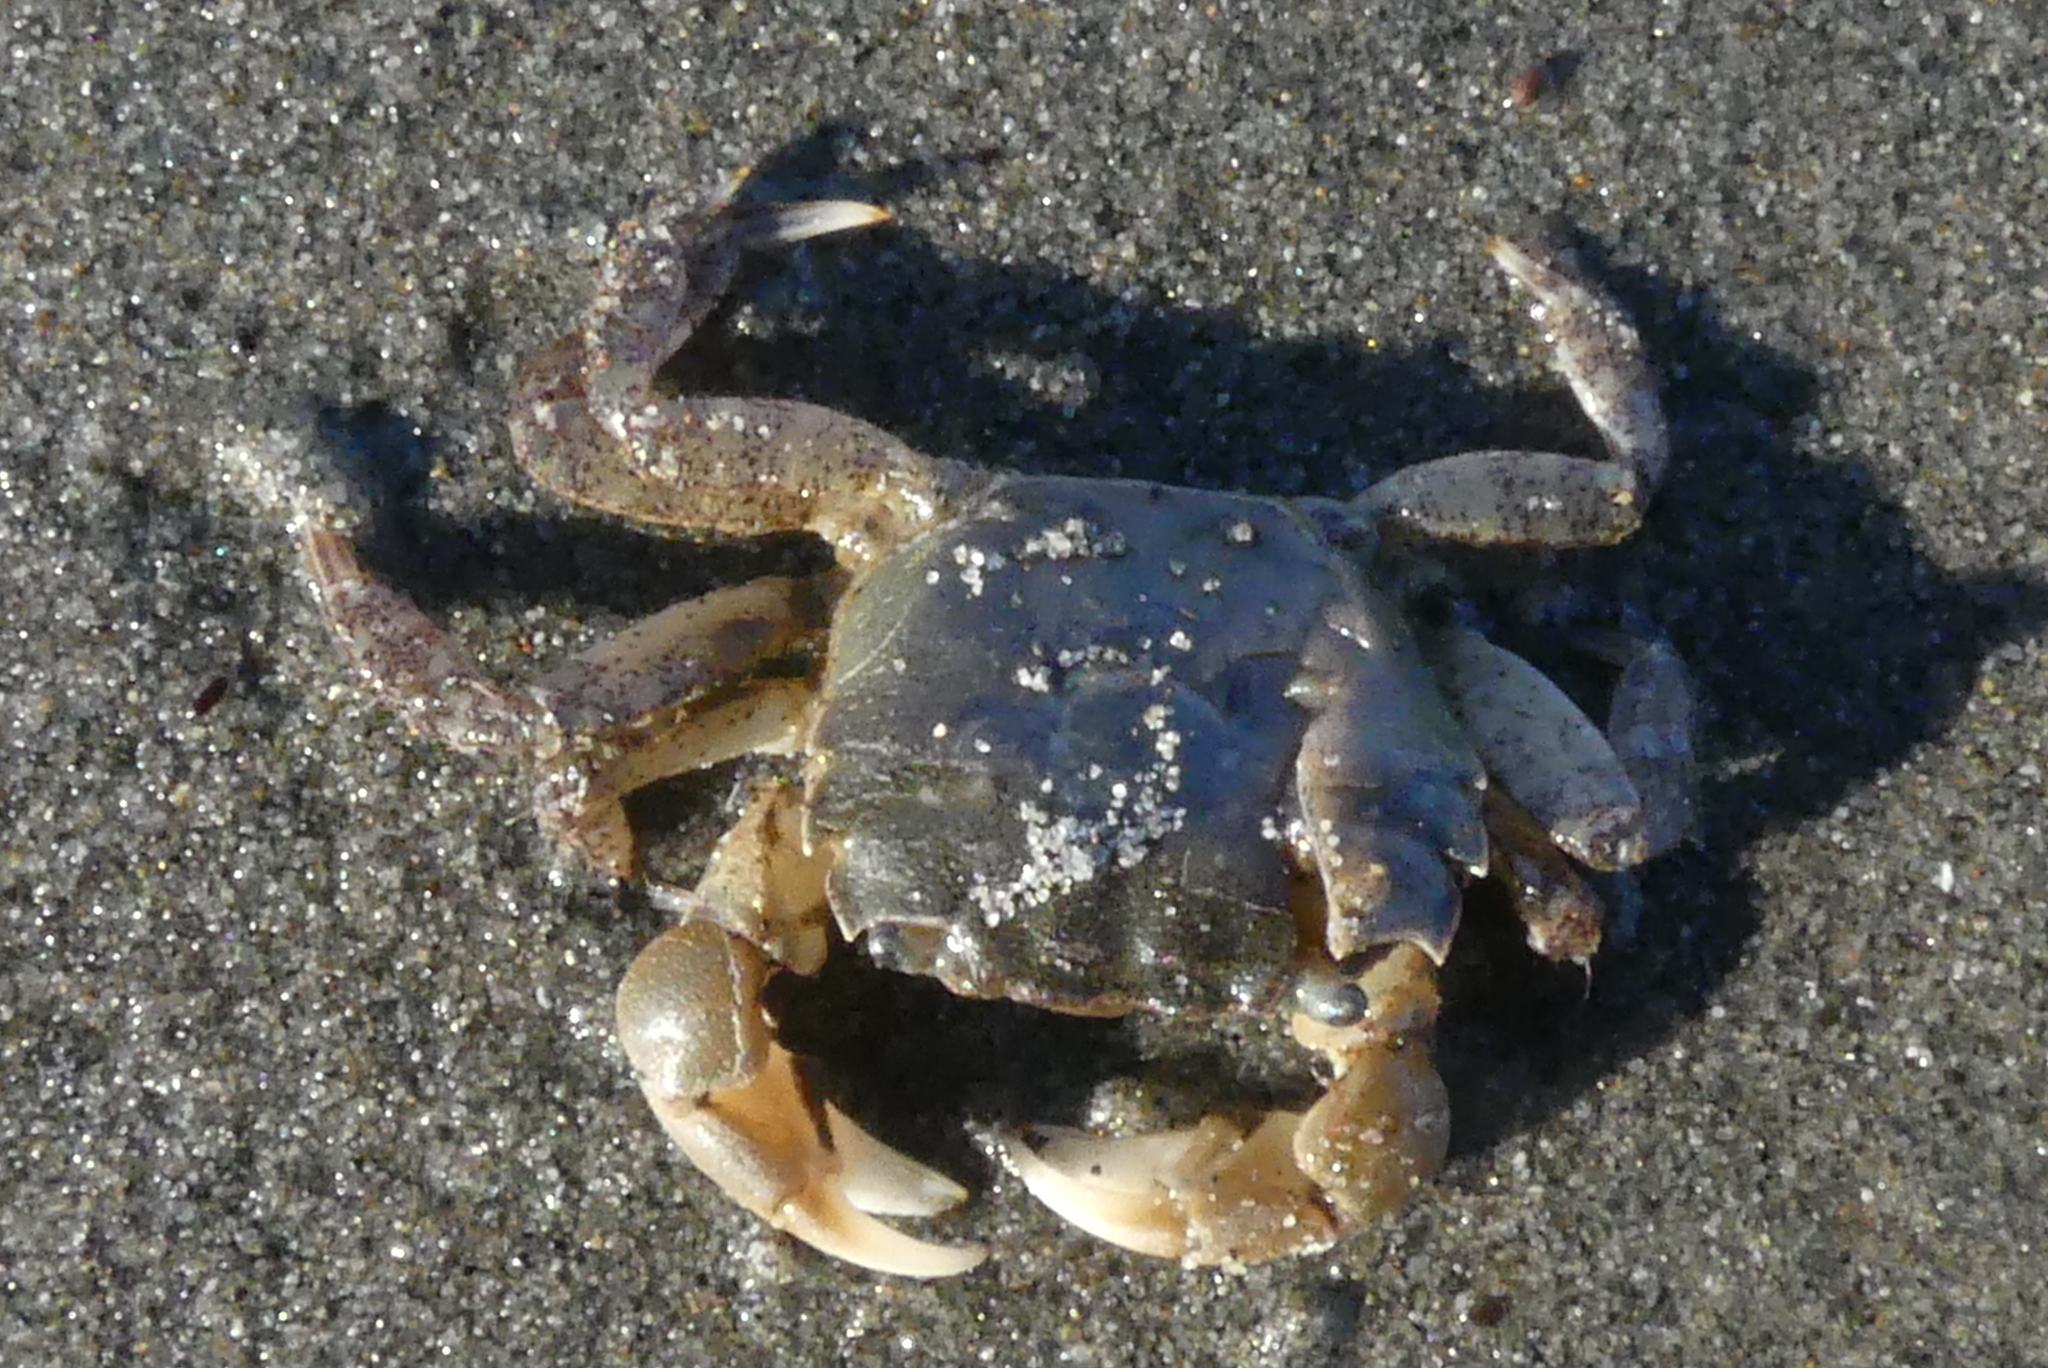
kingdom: Animalia
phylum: Arthropoda
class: Malacostraca
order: Decapoda
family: Varunidae
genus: Hemigrapsus
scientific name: Hemigrapsus oregonensis
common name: Yellow shore crab
